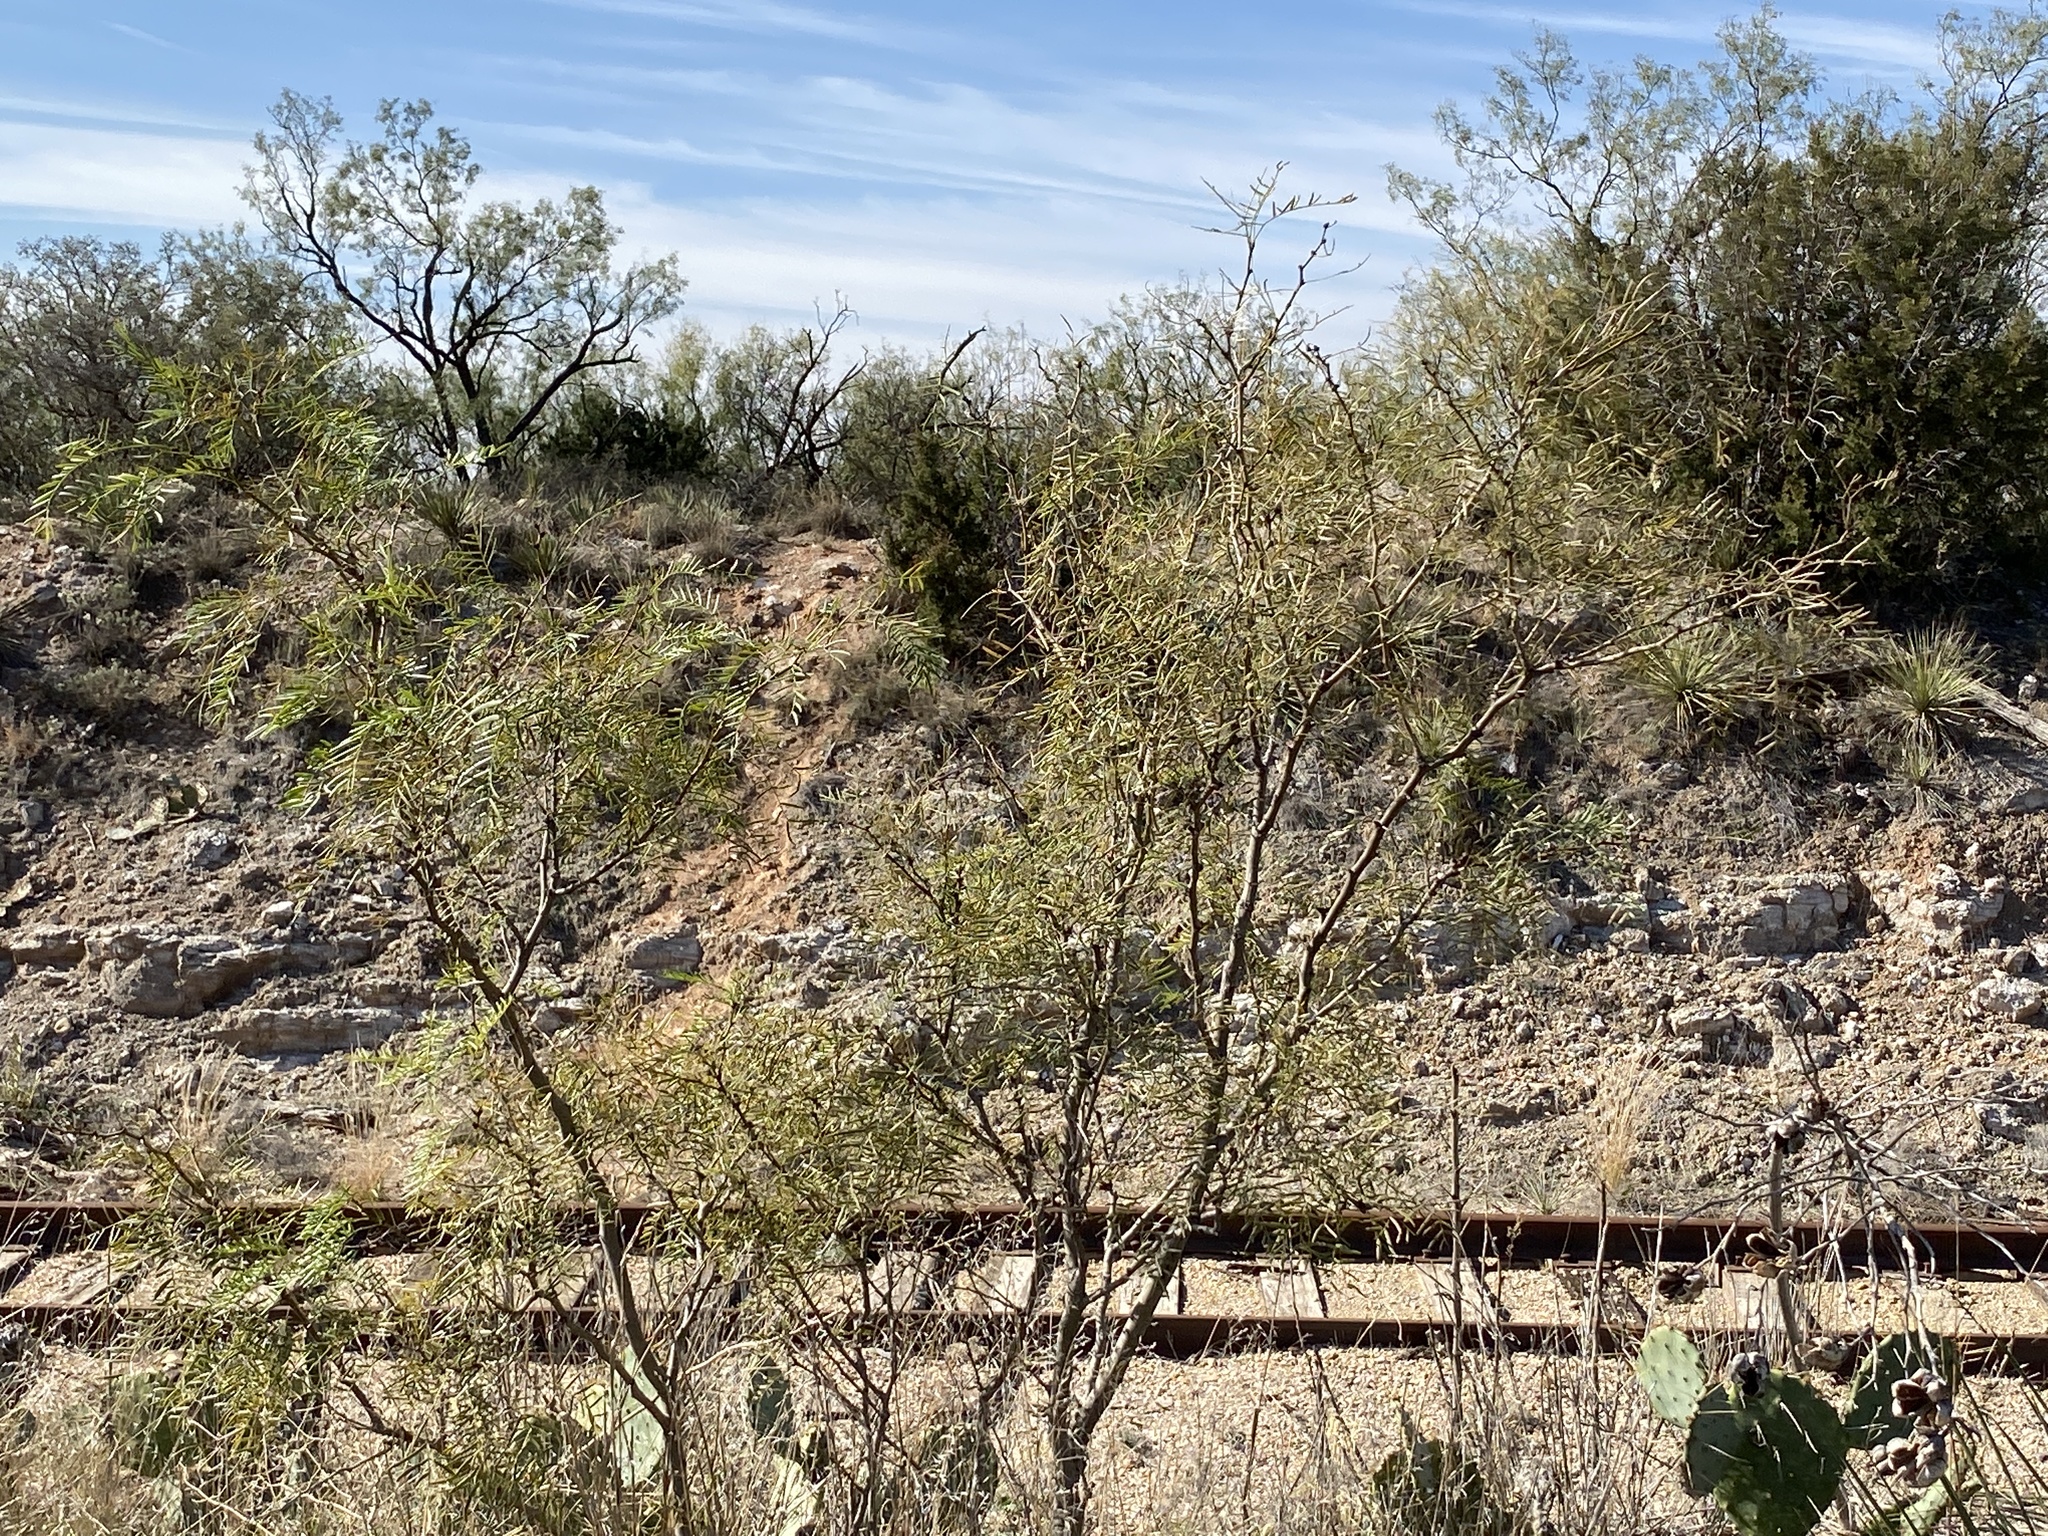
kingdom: Plantae
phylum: Tracheophyta
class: Magnoliopsida
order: Fabales
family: Fabaceae
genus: Prosopis
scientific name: Prosopis glandulosa
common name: Honey mesquite
